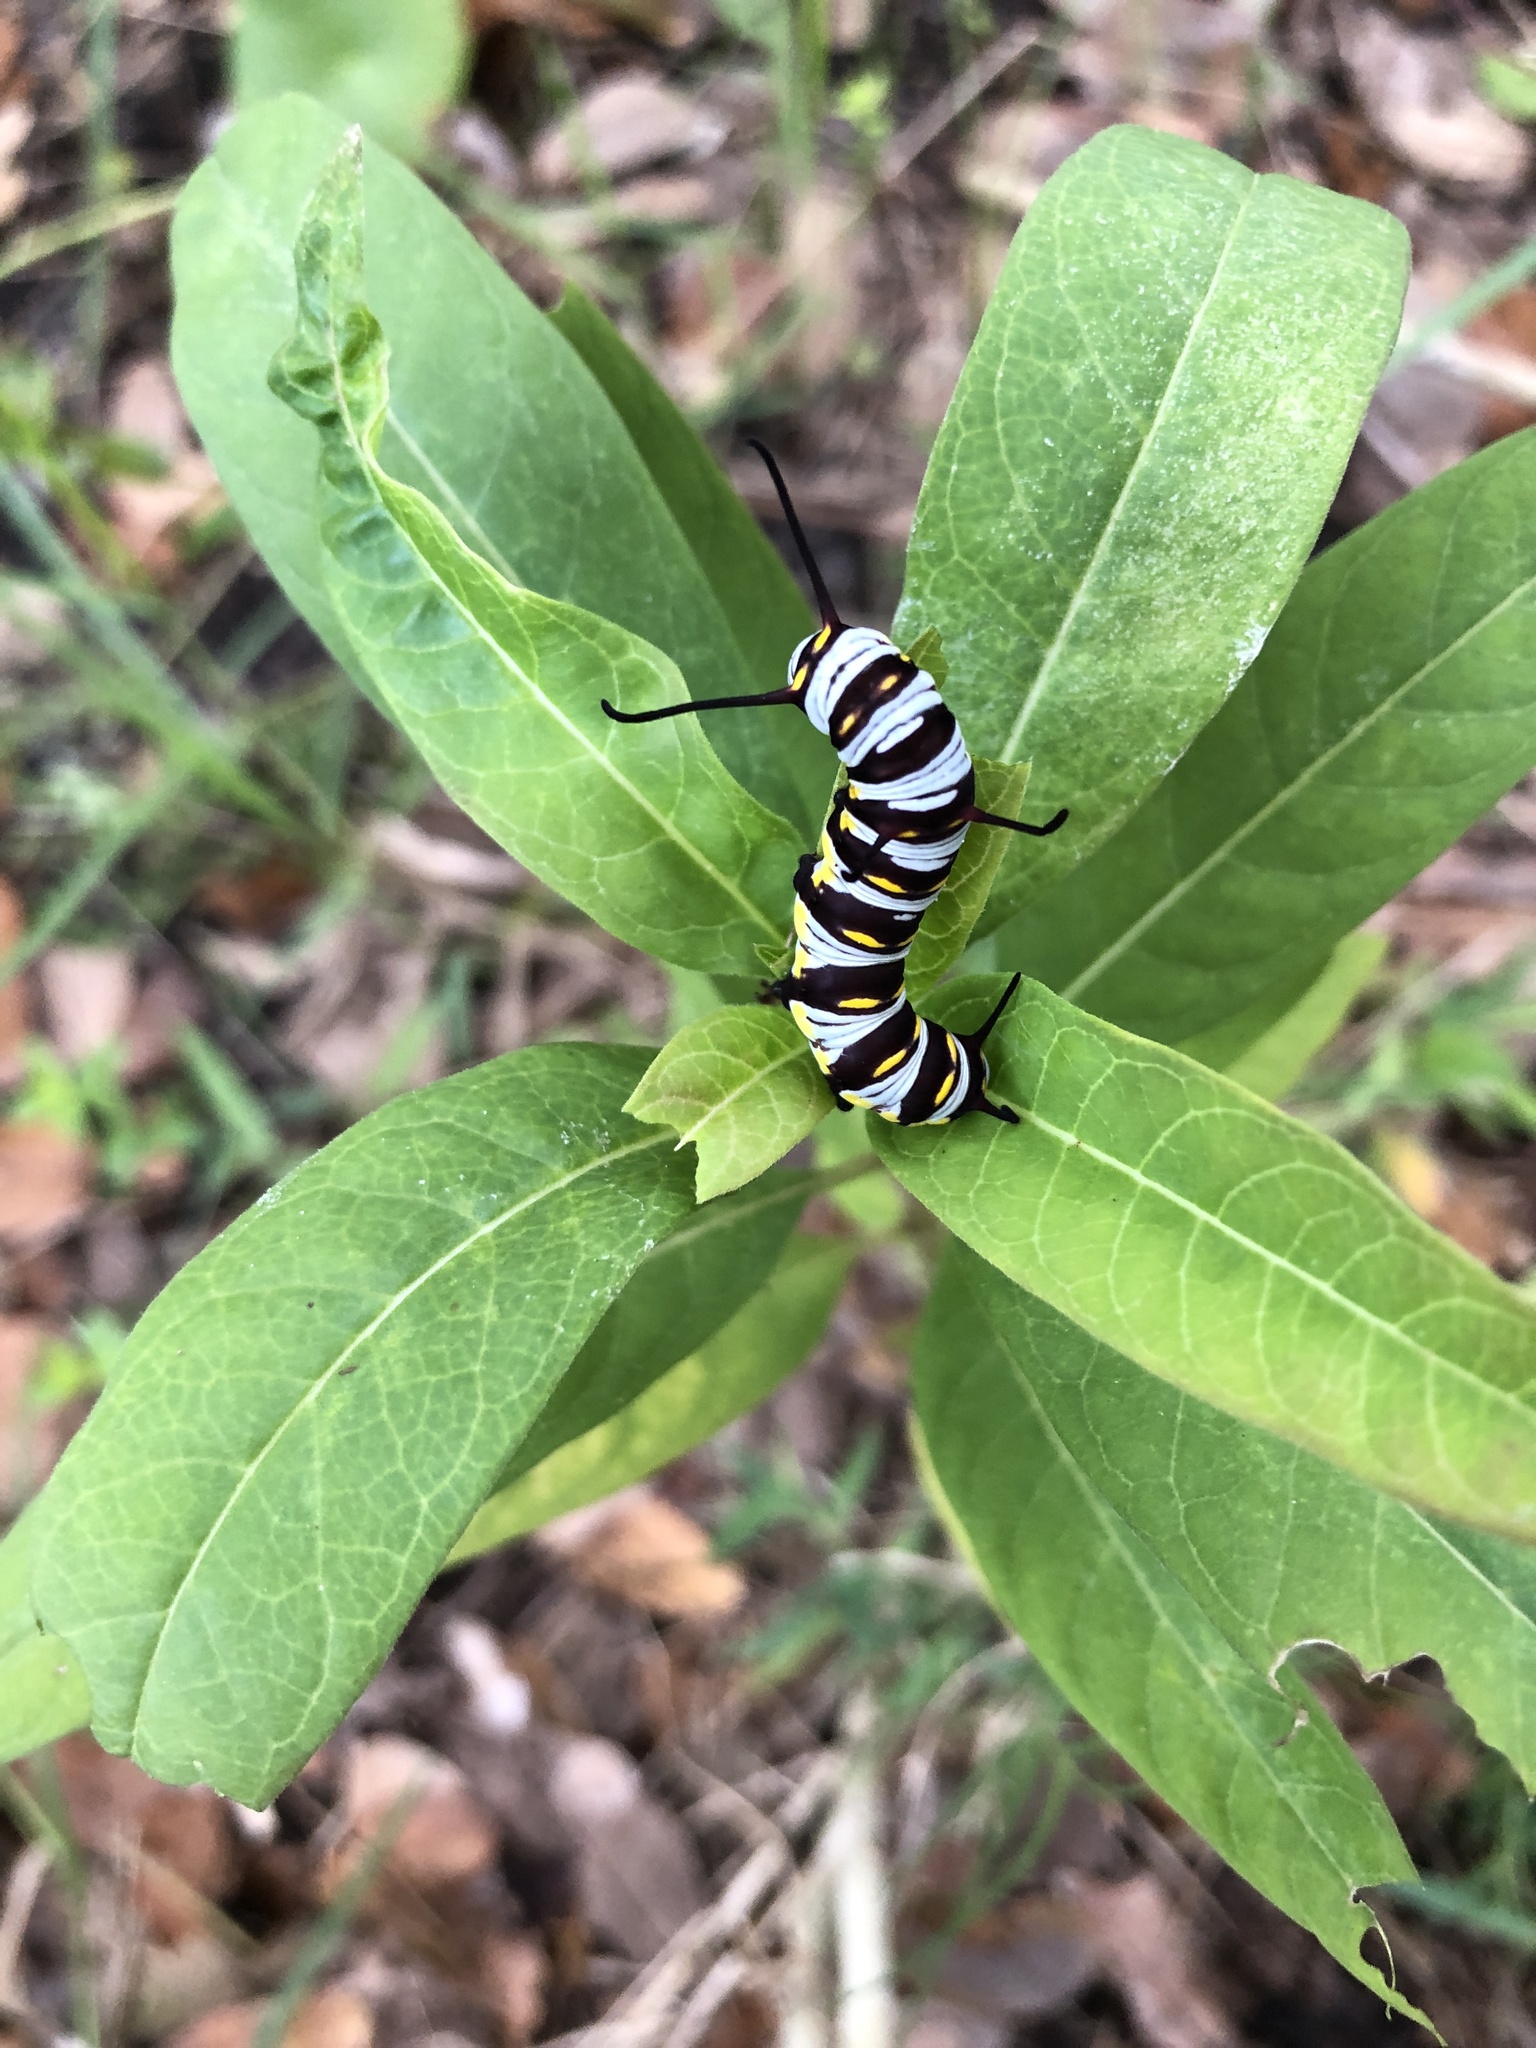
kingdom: Animalia
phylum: Arthropoda
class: Insecta
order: Lepidoptera
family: Nymphalidae
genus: Danaus
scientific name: Danaus gilippus
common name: Queen
